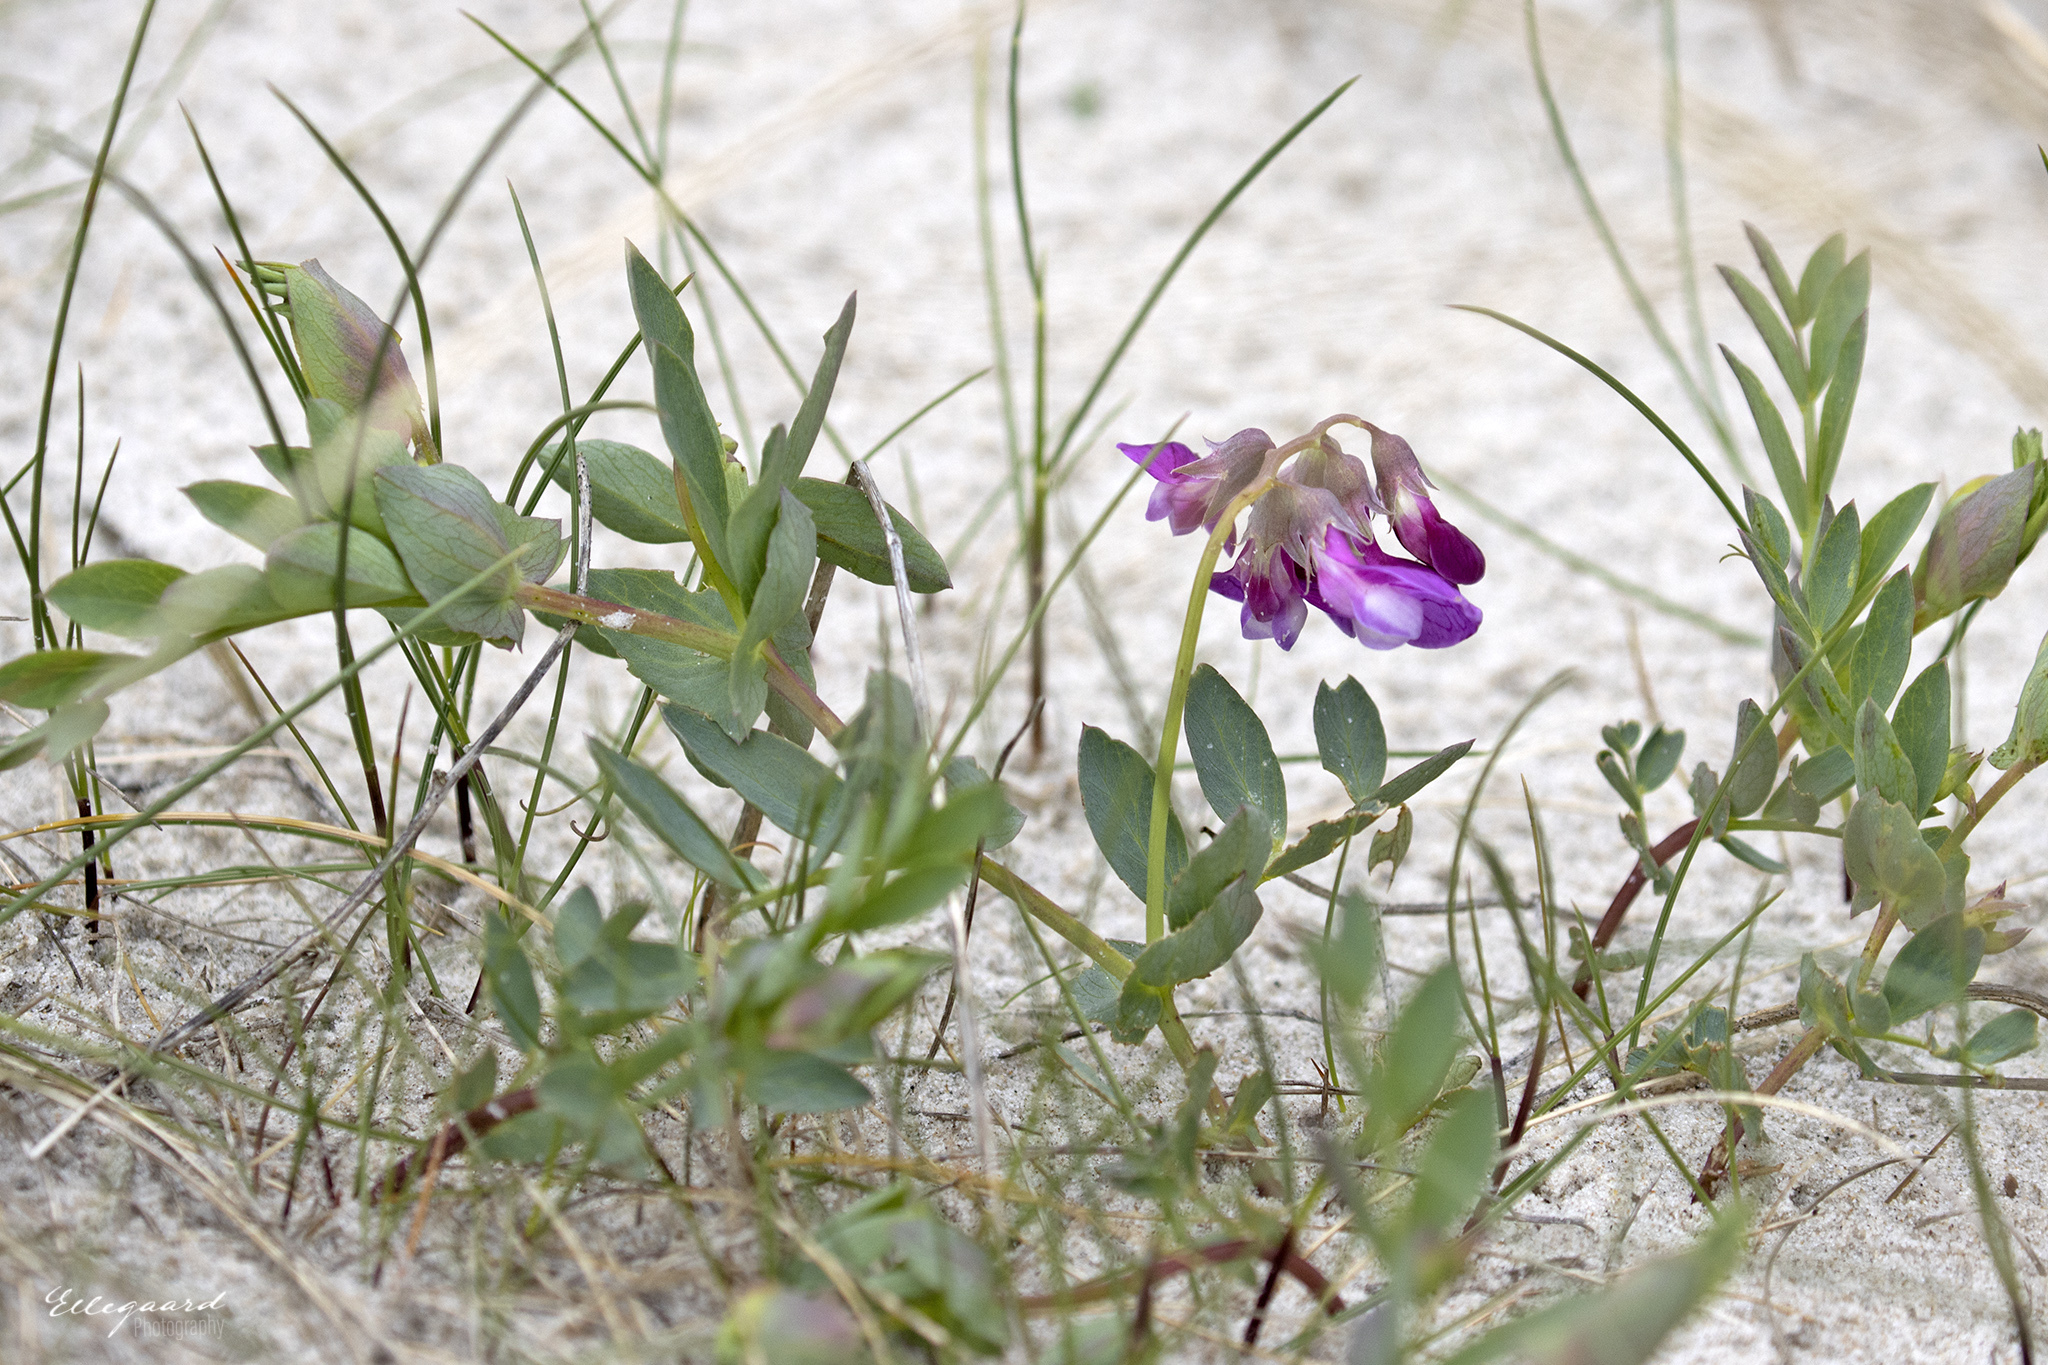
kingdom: Plantae
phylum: Tracheophyta
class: Magnoliopsida
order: Fabales
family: Fabaceae
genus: Lathyrus
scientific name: Lathyrus japonicus
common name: Sea pea
